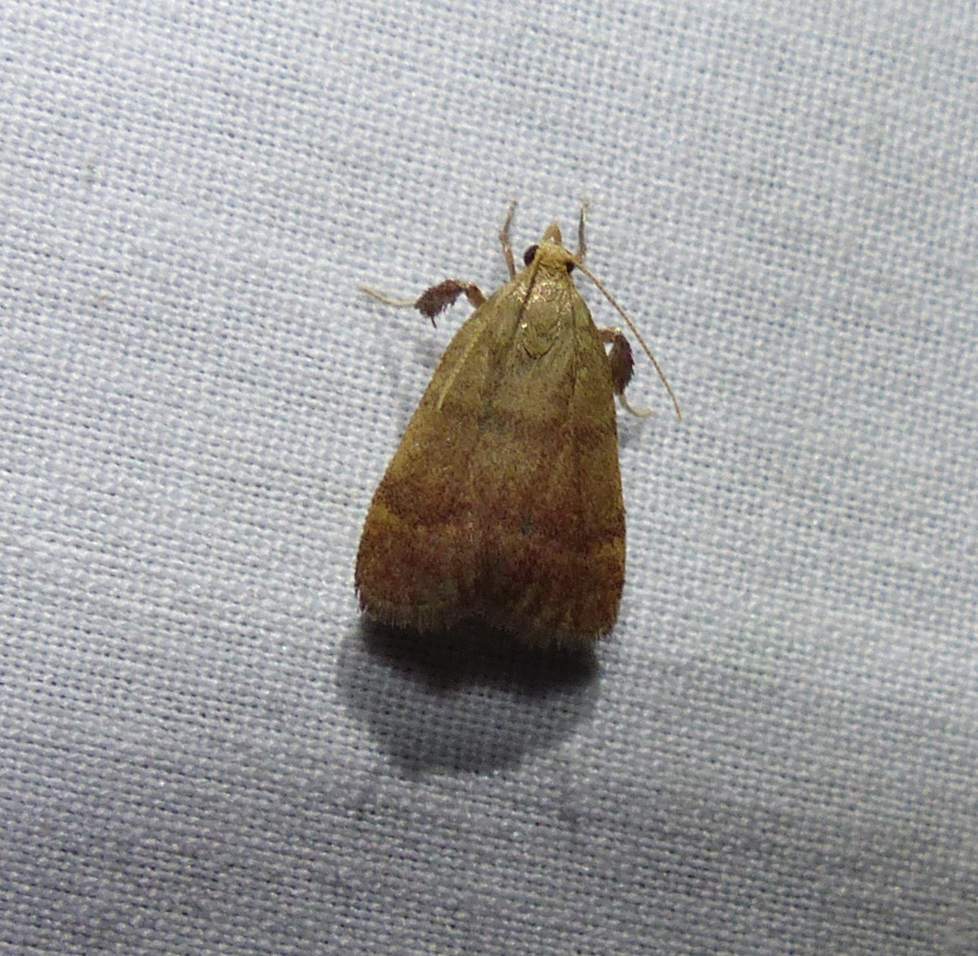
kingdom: Animalia
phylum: Arthropoda
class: Insecta
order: Lepidoptera
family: Pyralidae
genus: Condylolomia
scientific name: Condylolomia participialis
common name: Drab condylolomia moth
